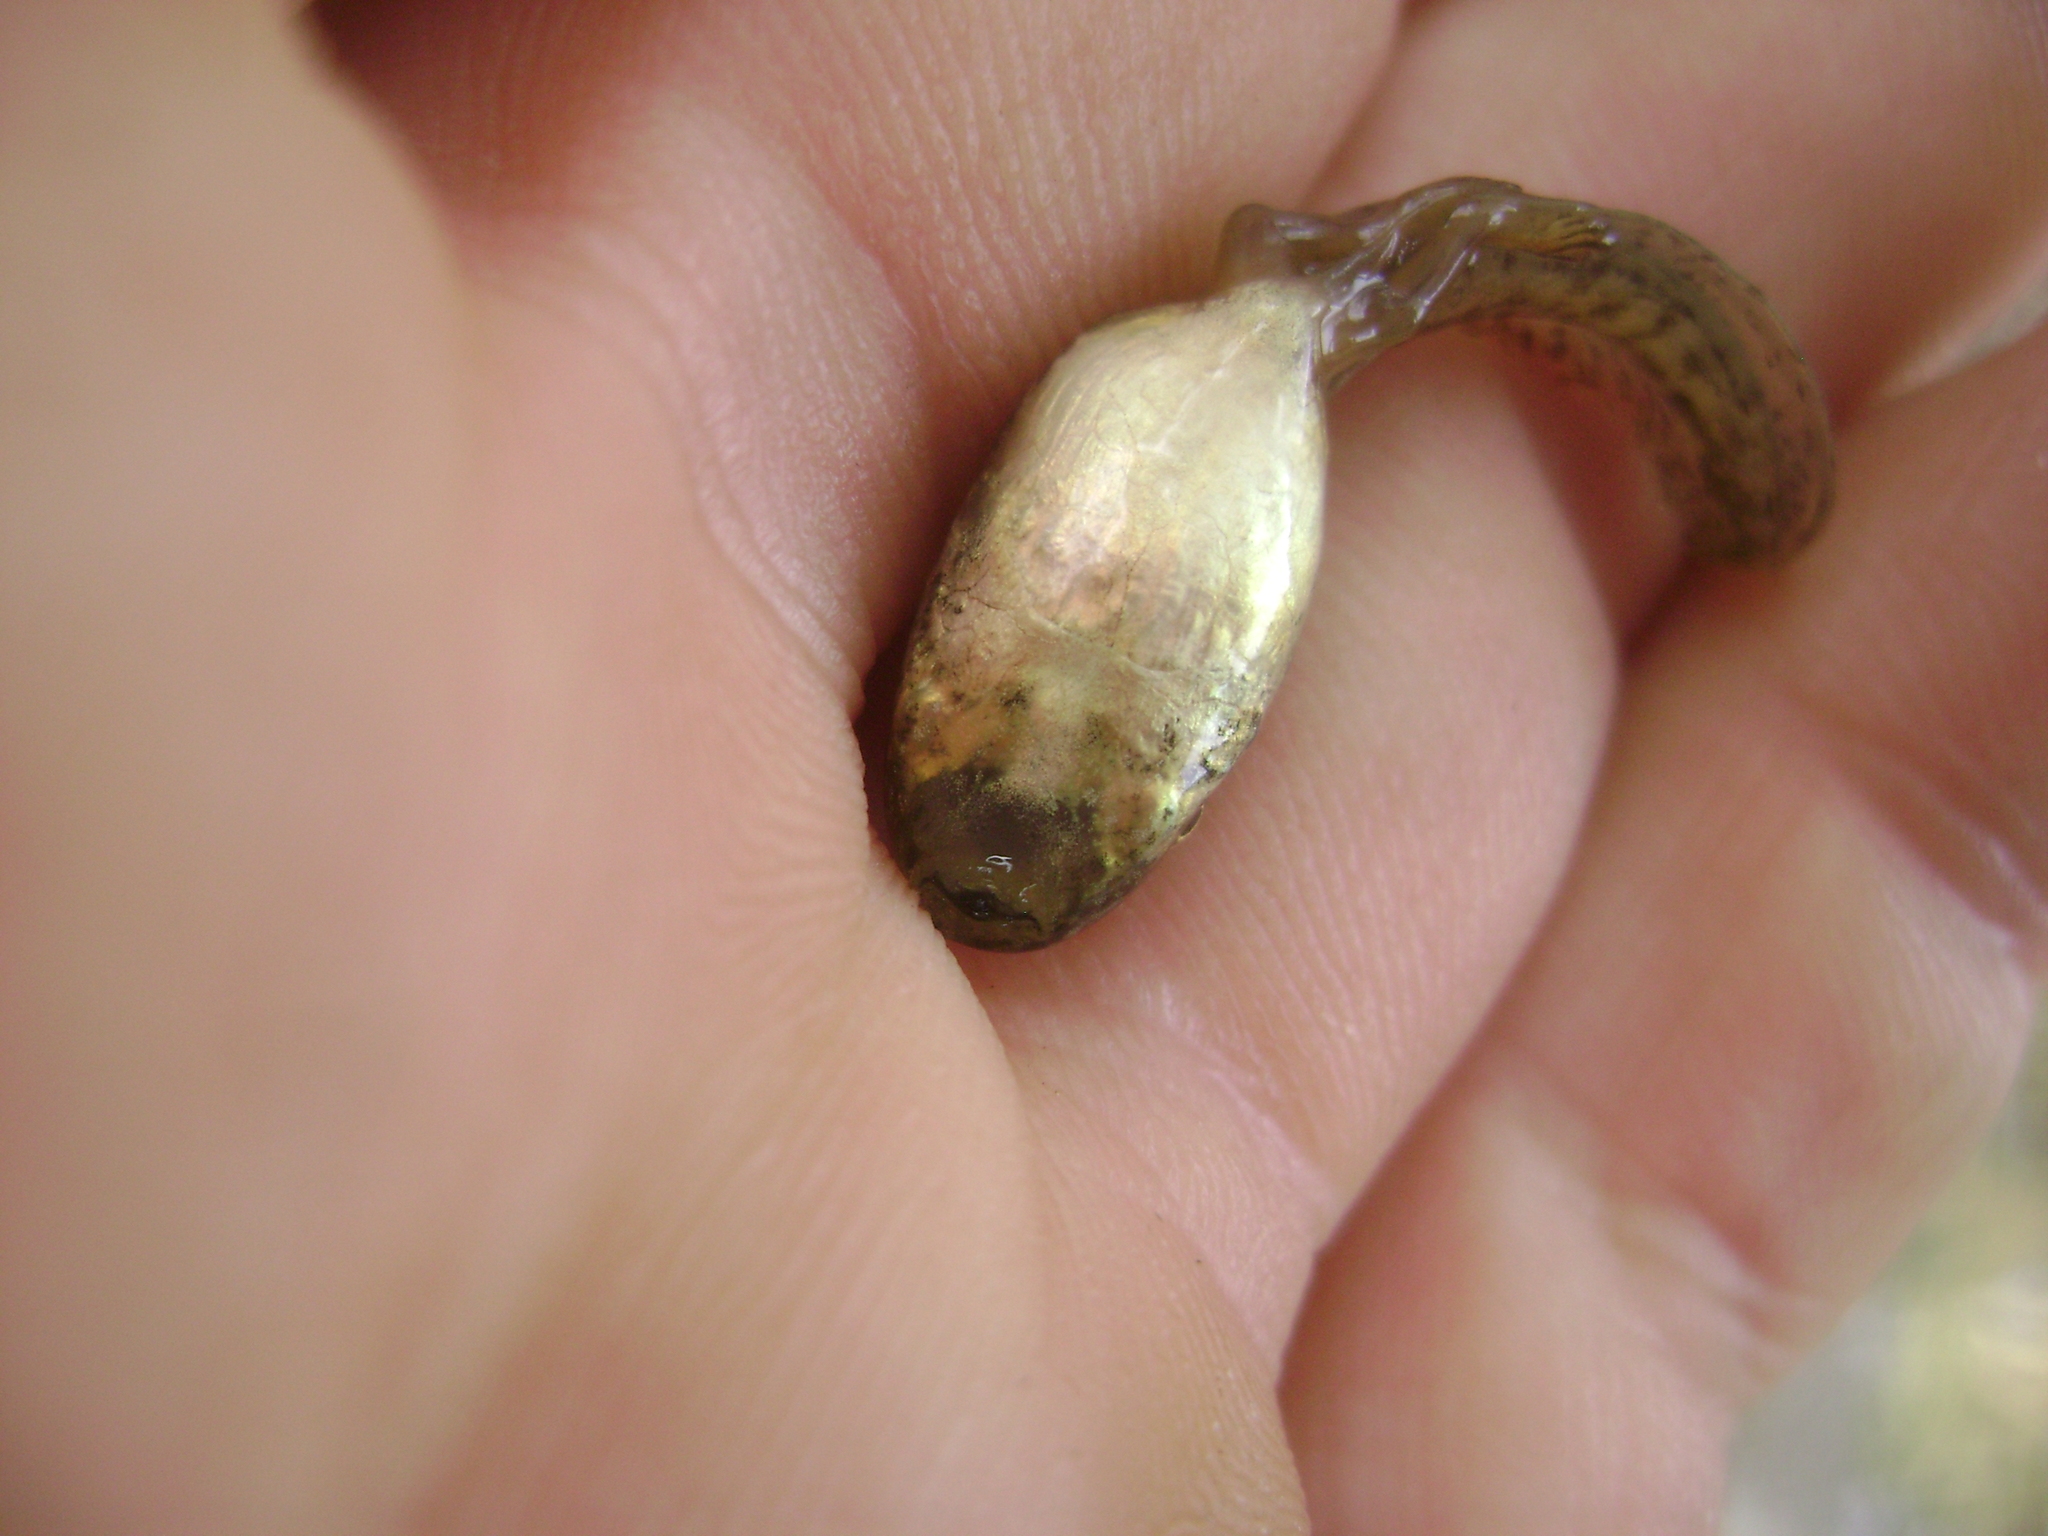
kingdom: Animalia
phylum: Chordata
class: Amphibia
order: Anura
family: Hylidae
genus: Pseudacris
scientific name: Pseudacris regilla
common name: Pacific chorus frog
